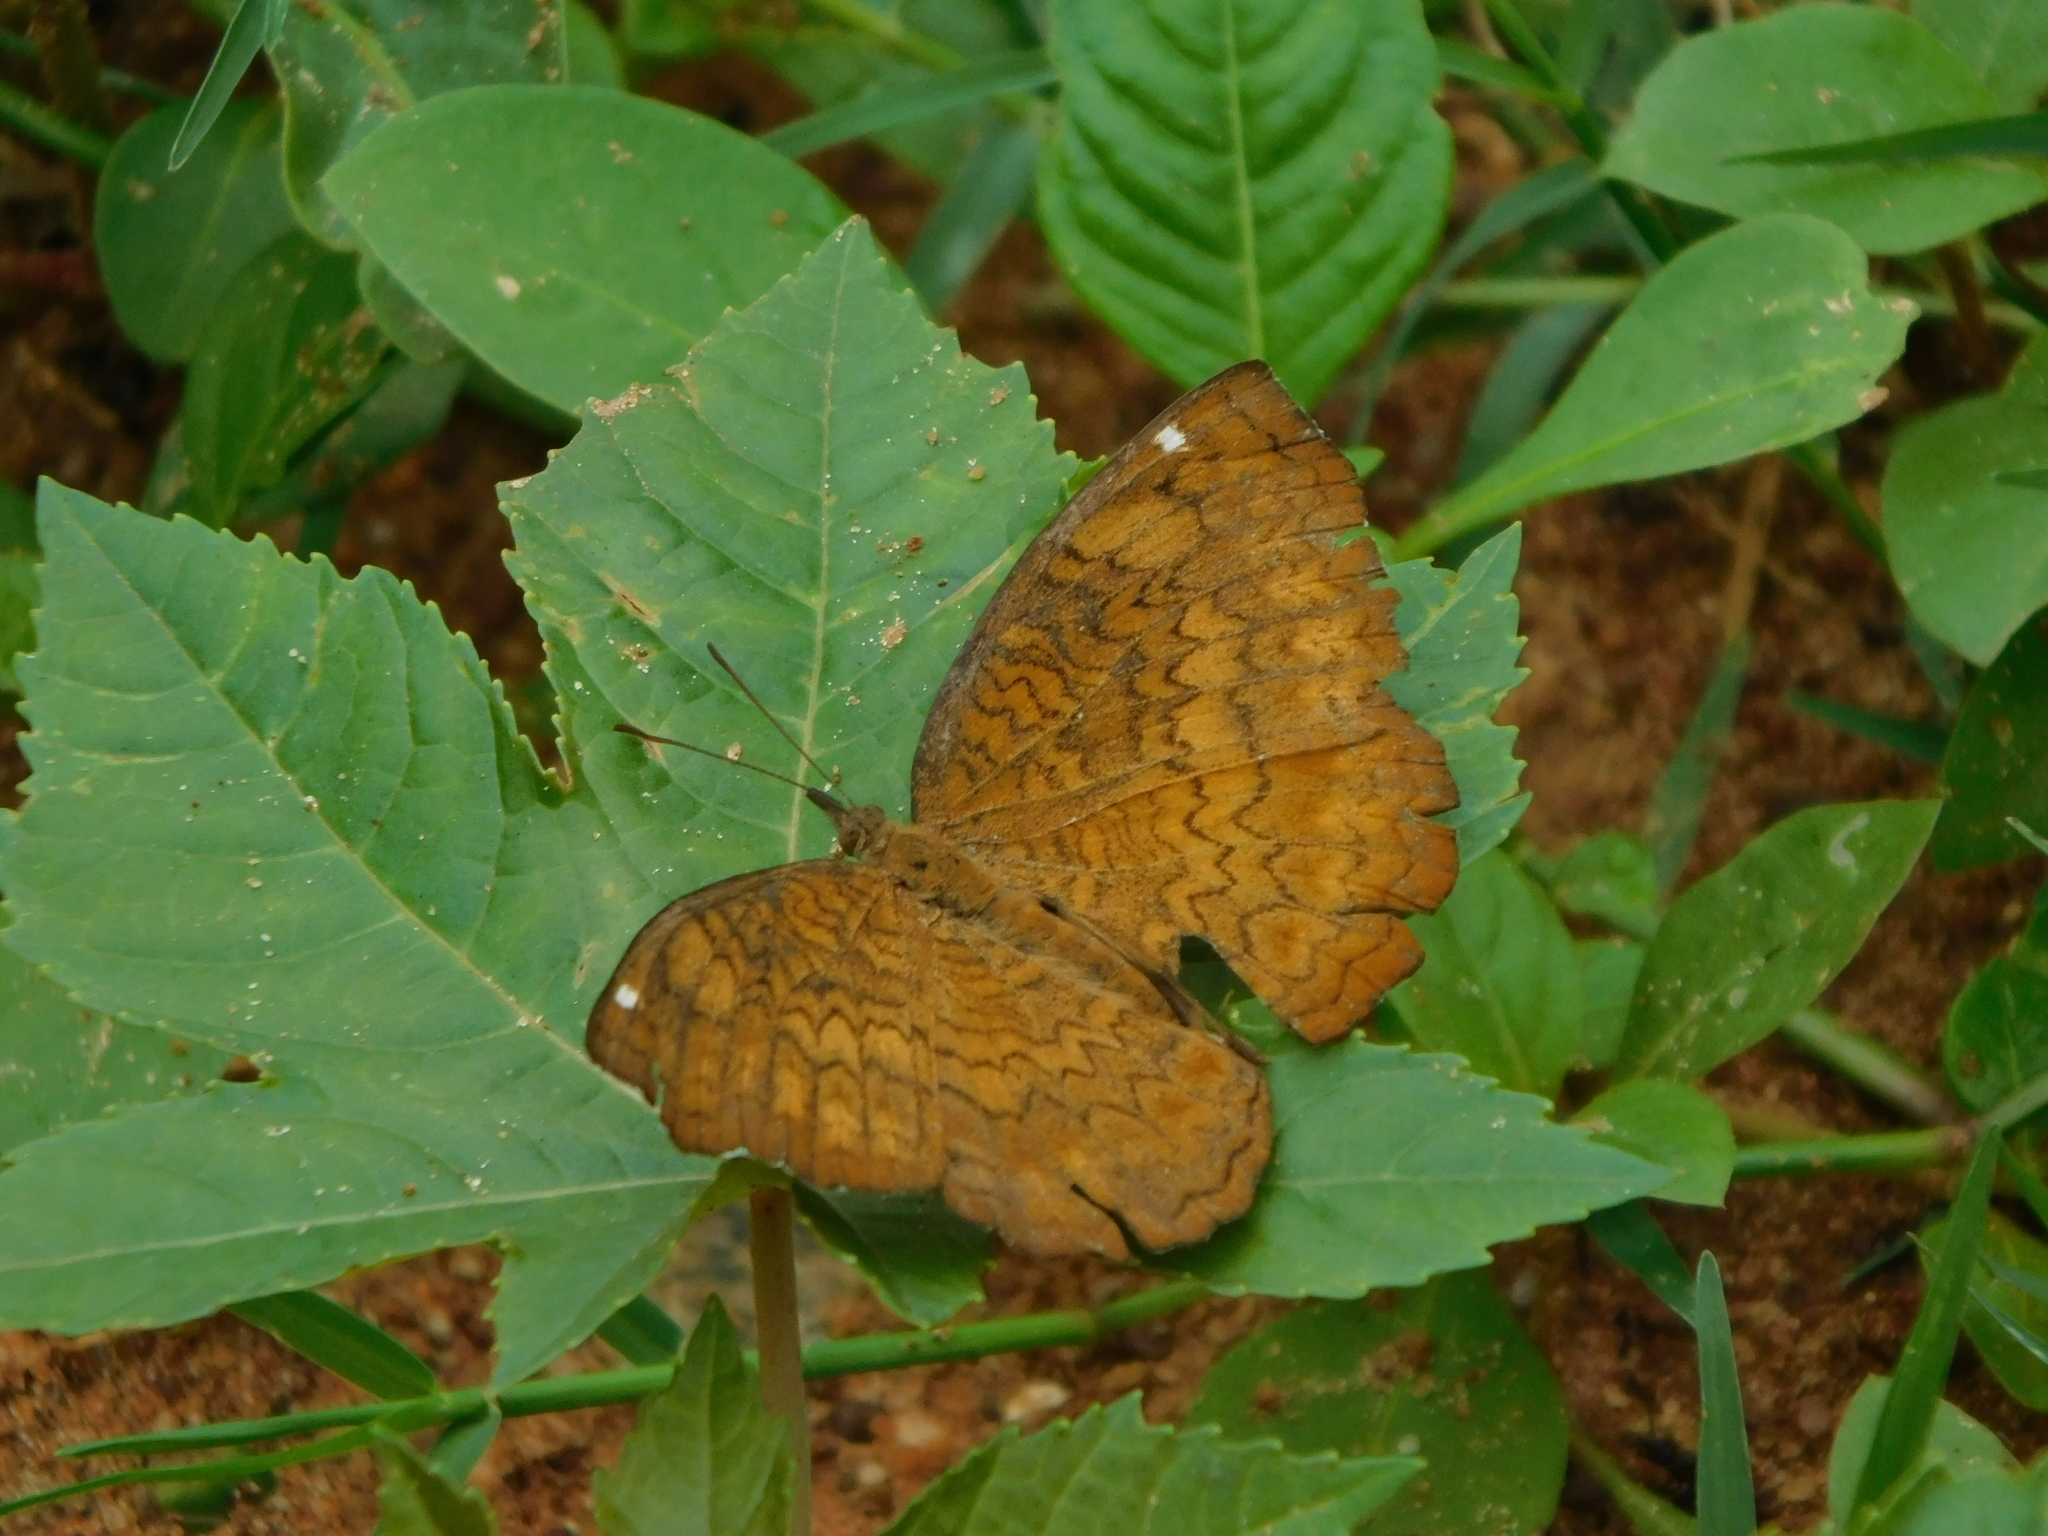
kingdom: Animalia
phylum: Arthropoda
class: Insecta
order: Lepidoptera
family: Nymphalidae
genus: Ariadne
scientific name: Ariadne merione
